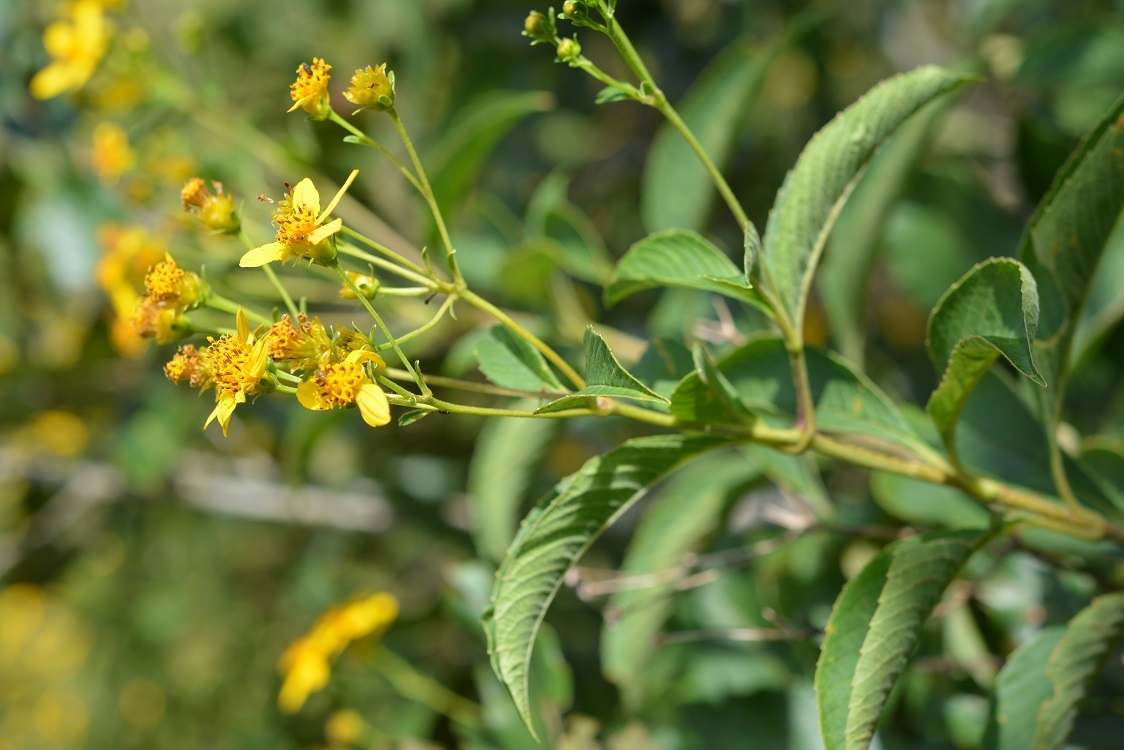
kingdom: Plantae
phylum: Tracheophyta
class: Magnoliopsida
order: Asterales
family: Asteraceae
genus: Electranthera
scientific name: Electranthera mutica
